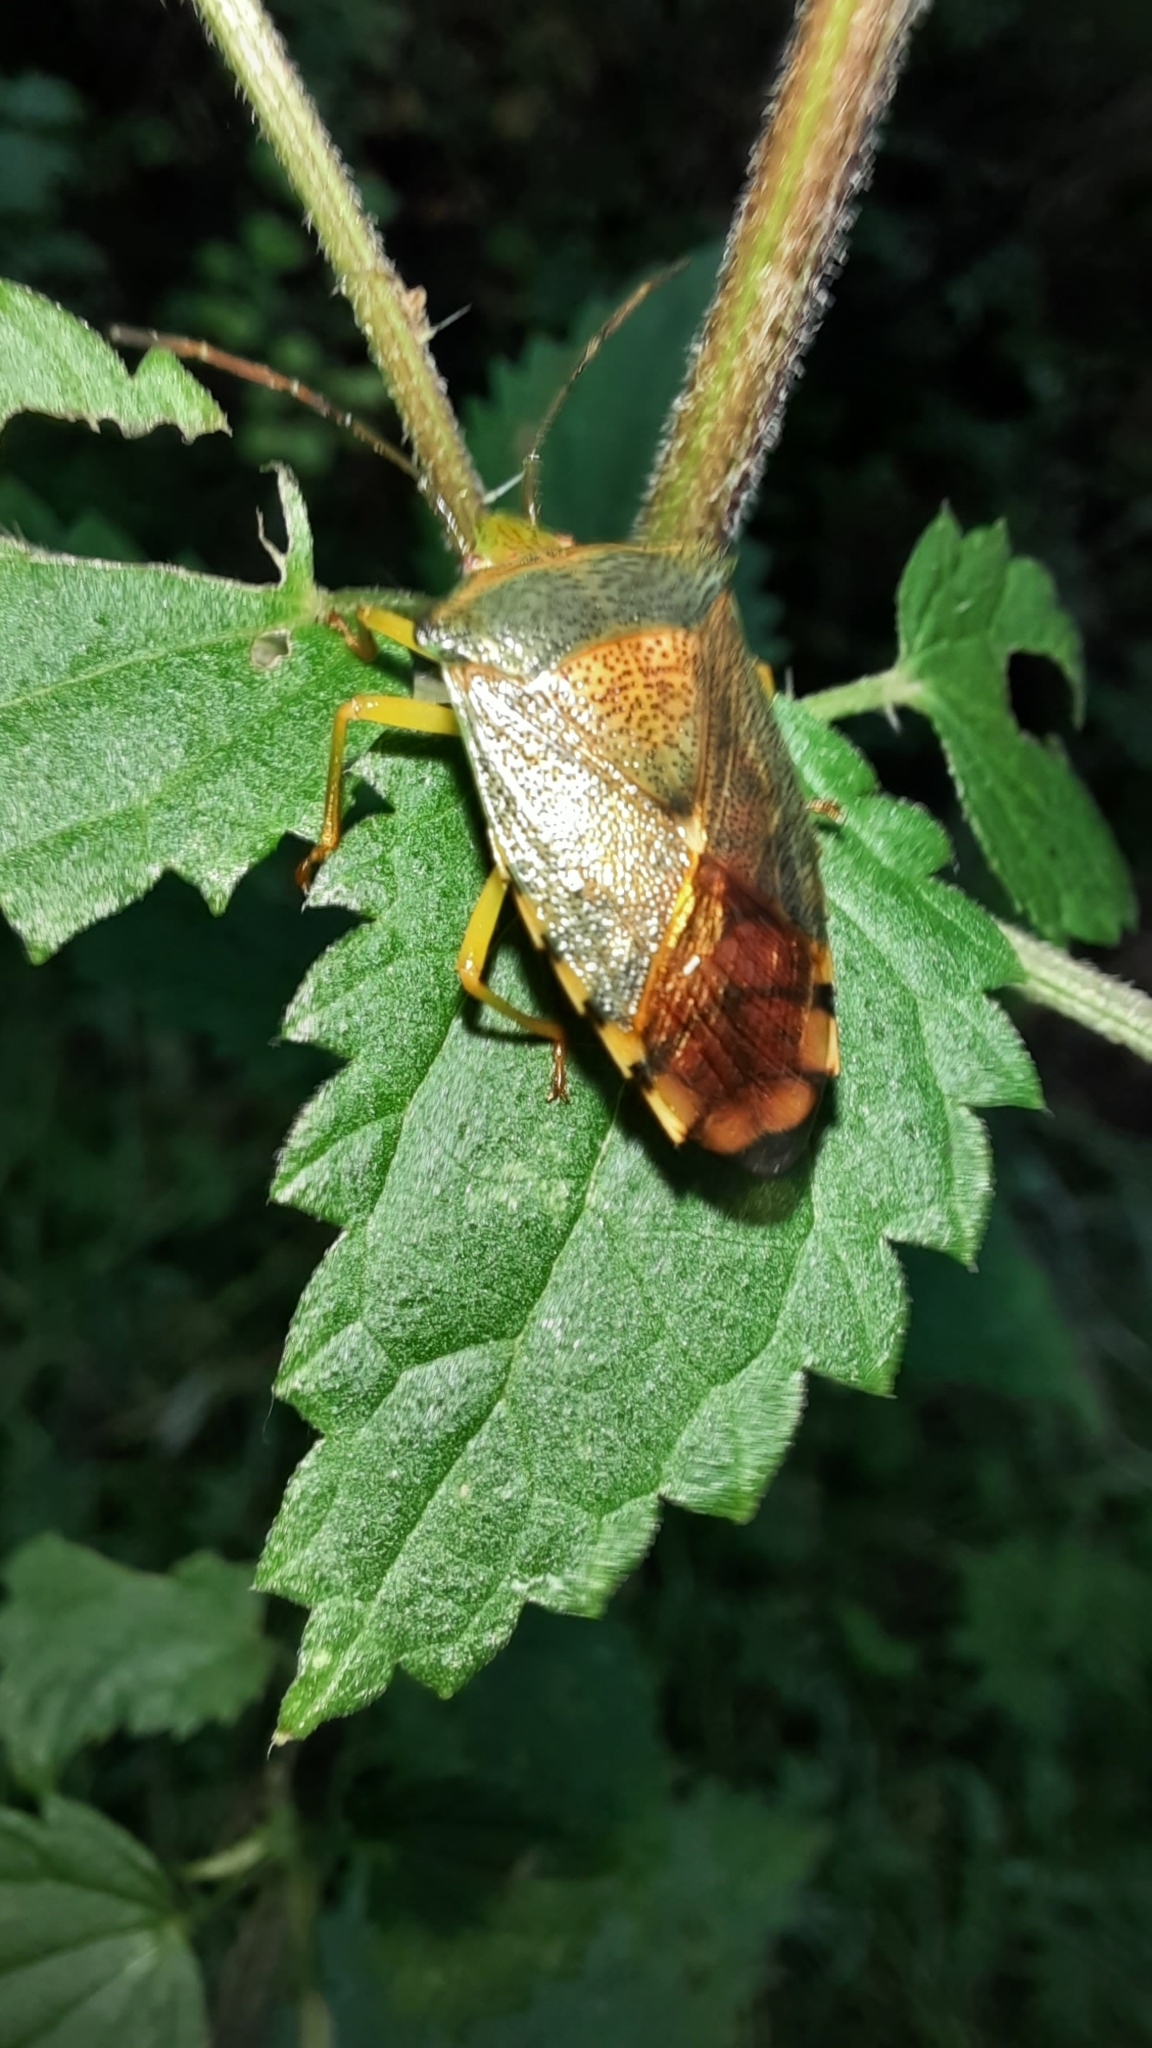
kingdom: Animalia
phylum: Arthropoda
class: Insecta
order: Hemiptera
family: Acanthosomatidae
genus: Acanthosoma
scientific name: Acanthosoma denticaudum
